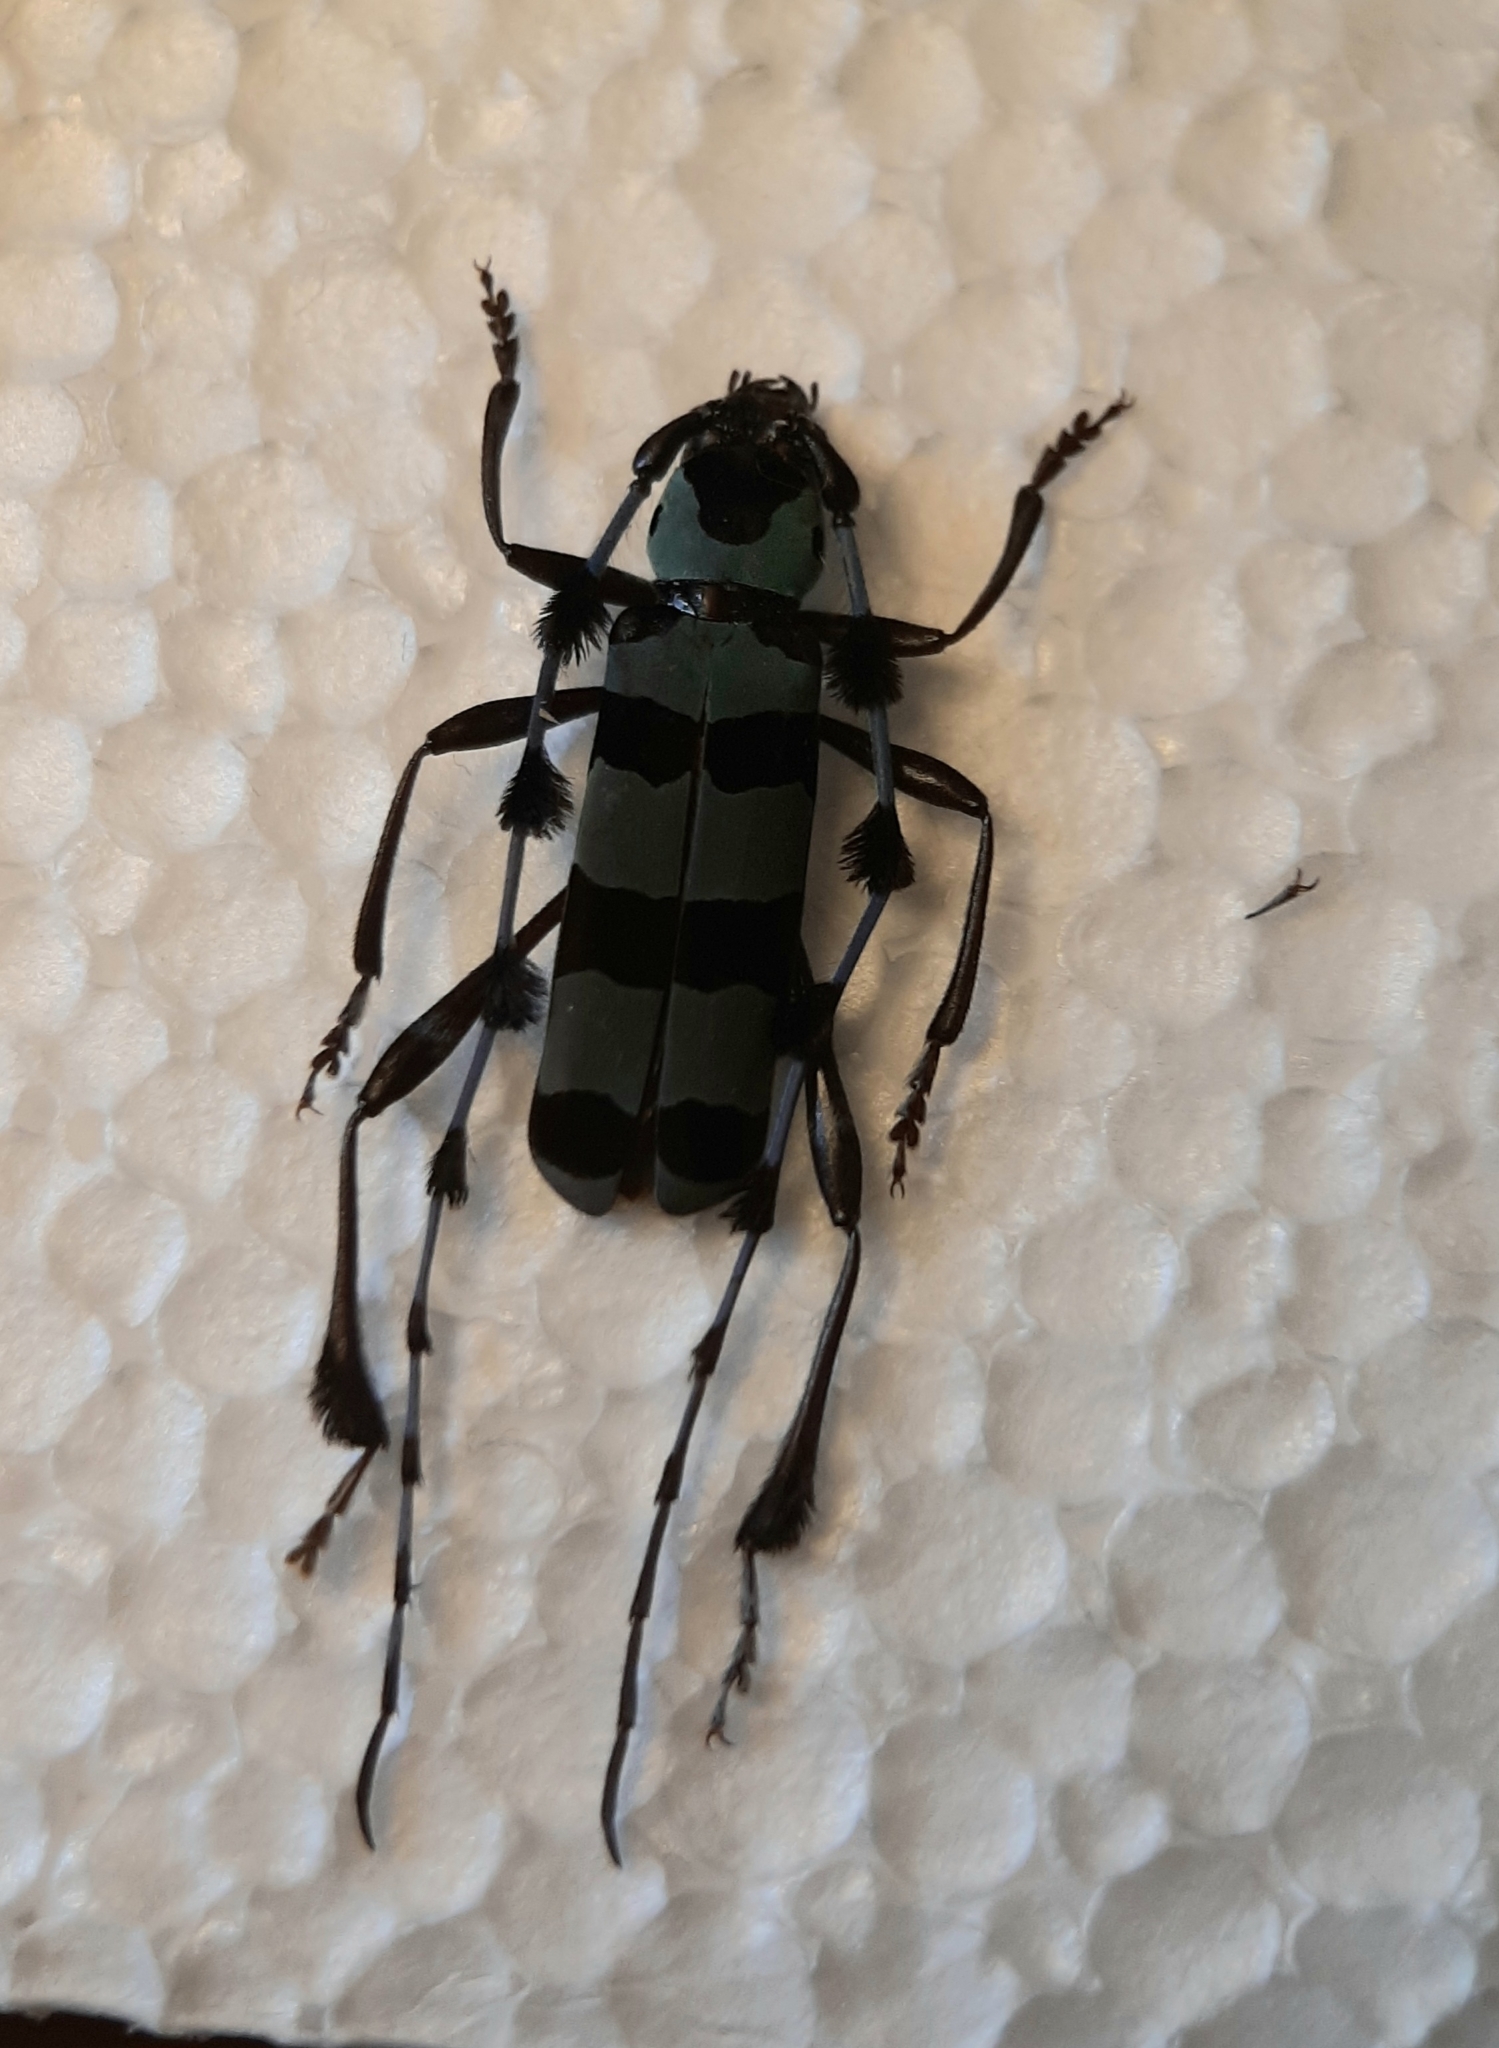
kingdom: Animalia
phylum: Arthropoda
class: Insecta
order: Coleoptera
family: Cerambycidae
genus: Rosalia
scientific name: Rosalia lameerei
